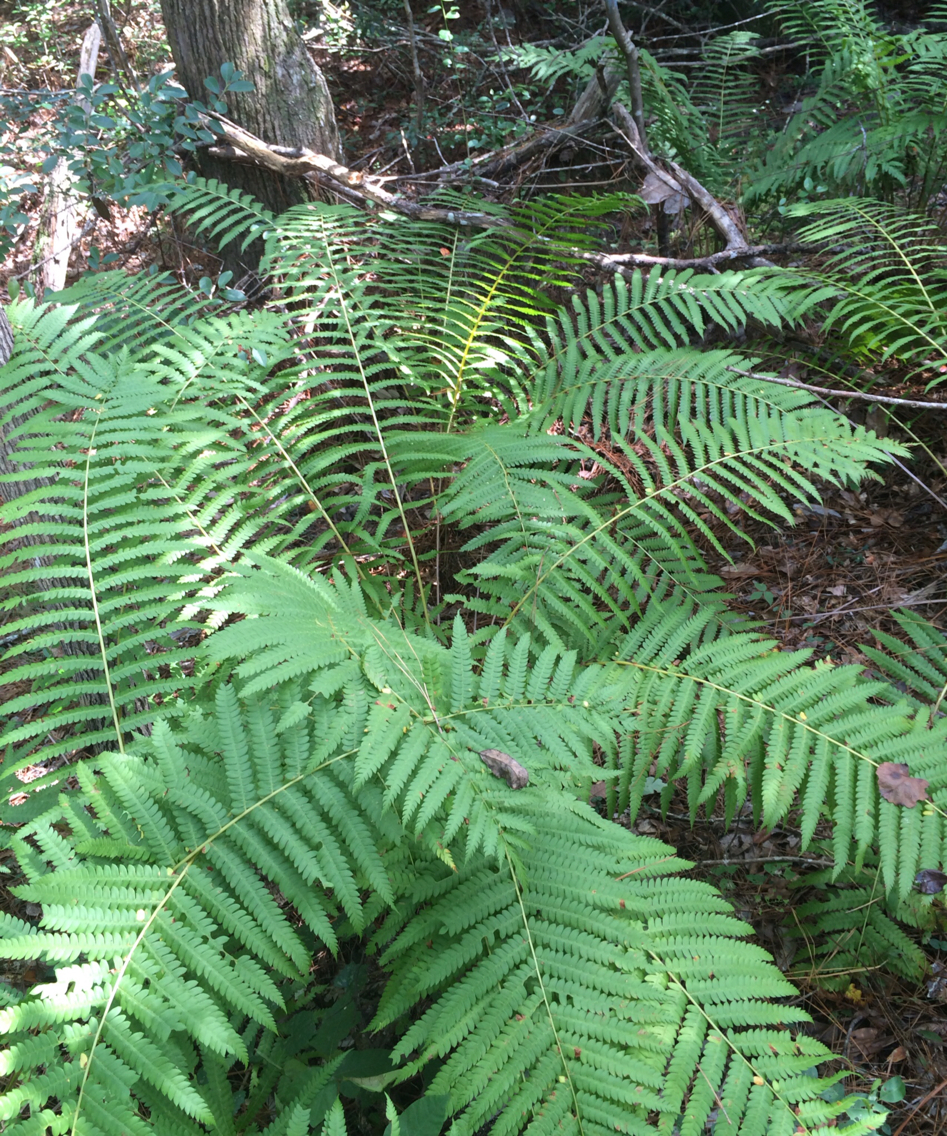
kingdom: Plantae
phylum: Tracheophyta
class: Polypodiopsida
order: Osmundales
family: Osmundaceae
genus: Osmundastrum
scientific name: Osmundastrum cinnamomeum
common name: Cinnamon fern
